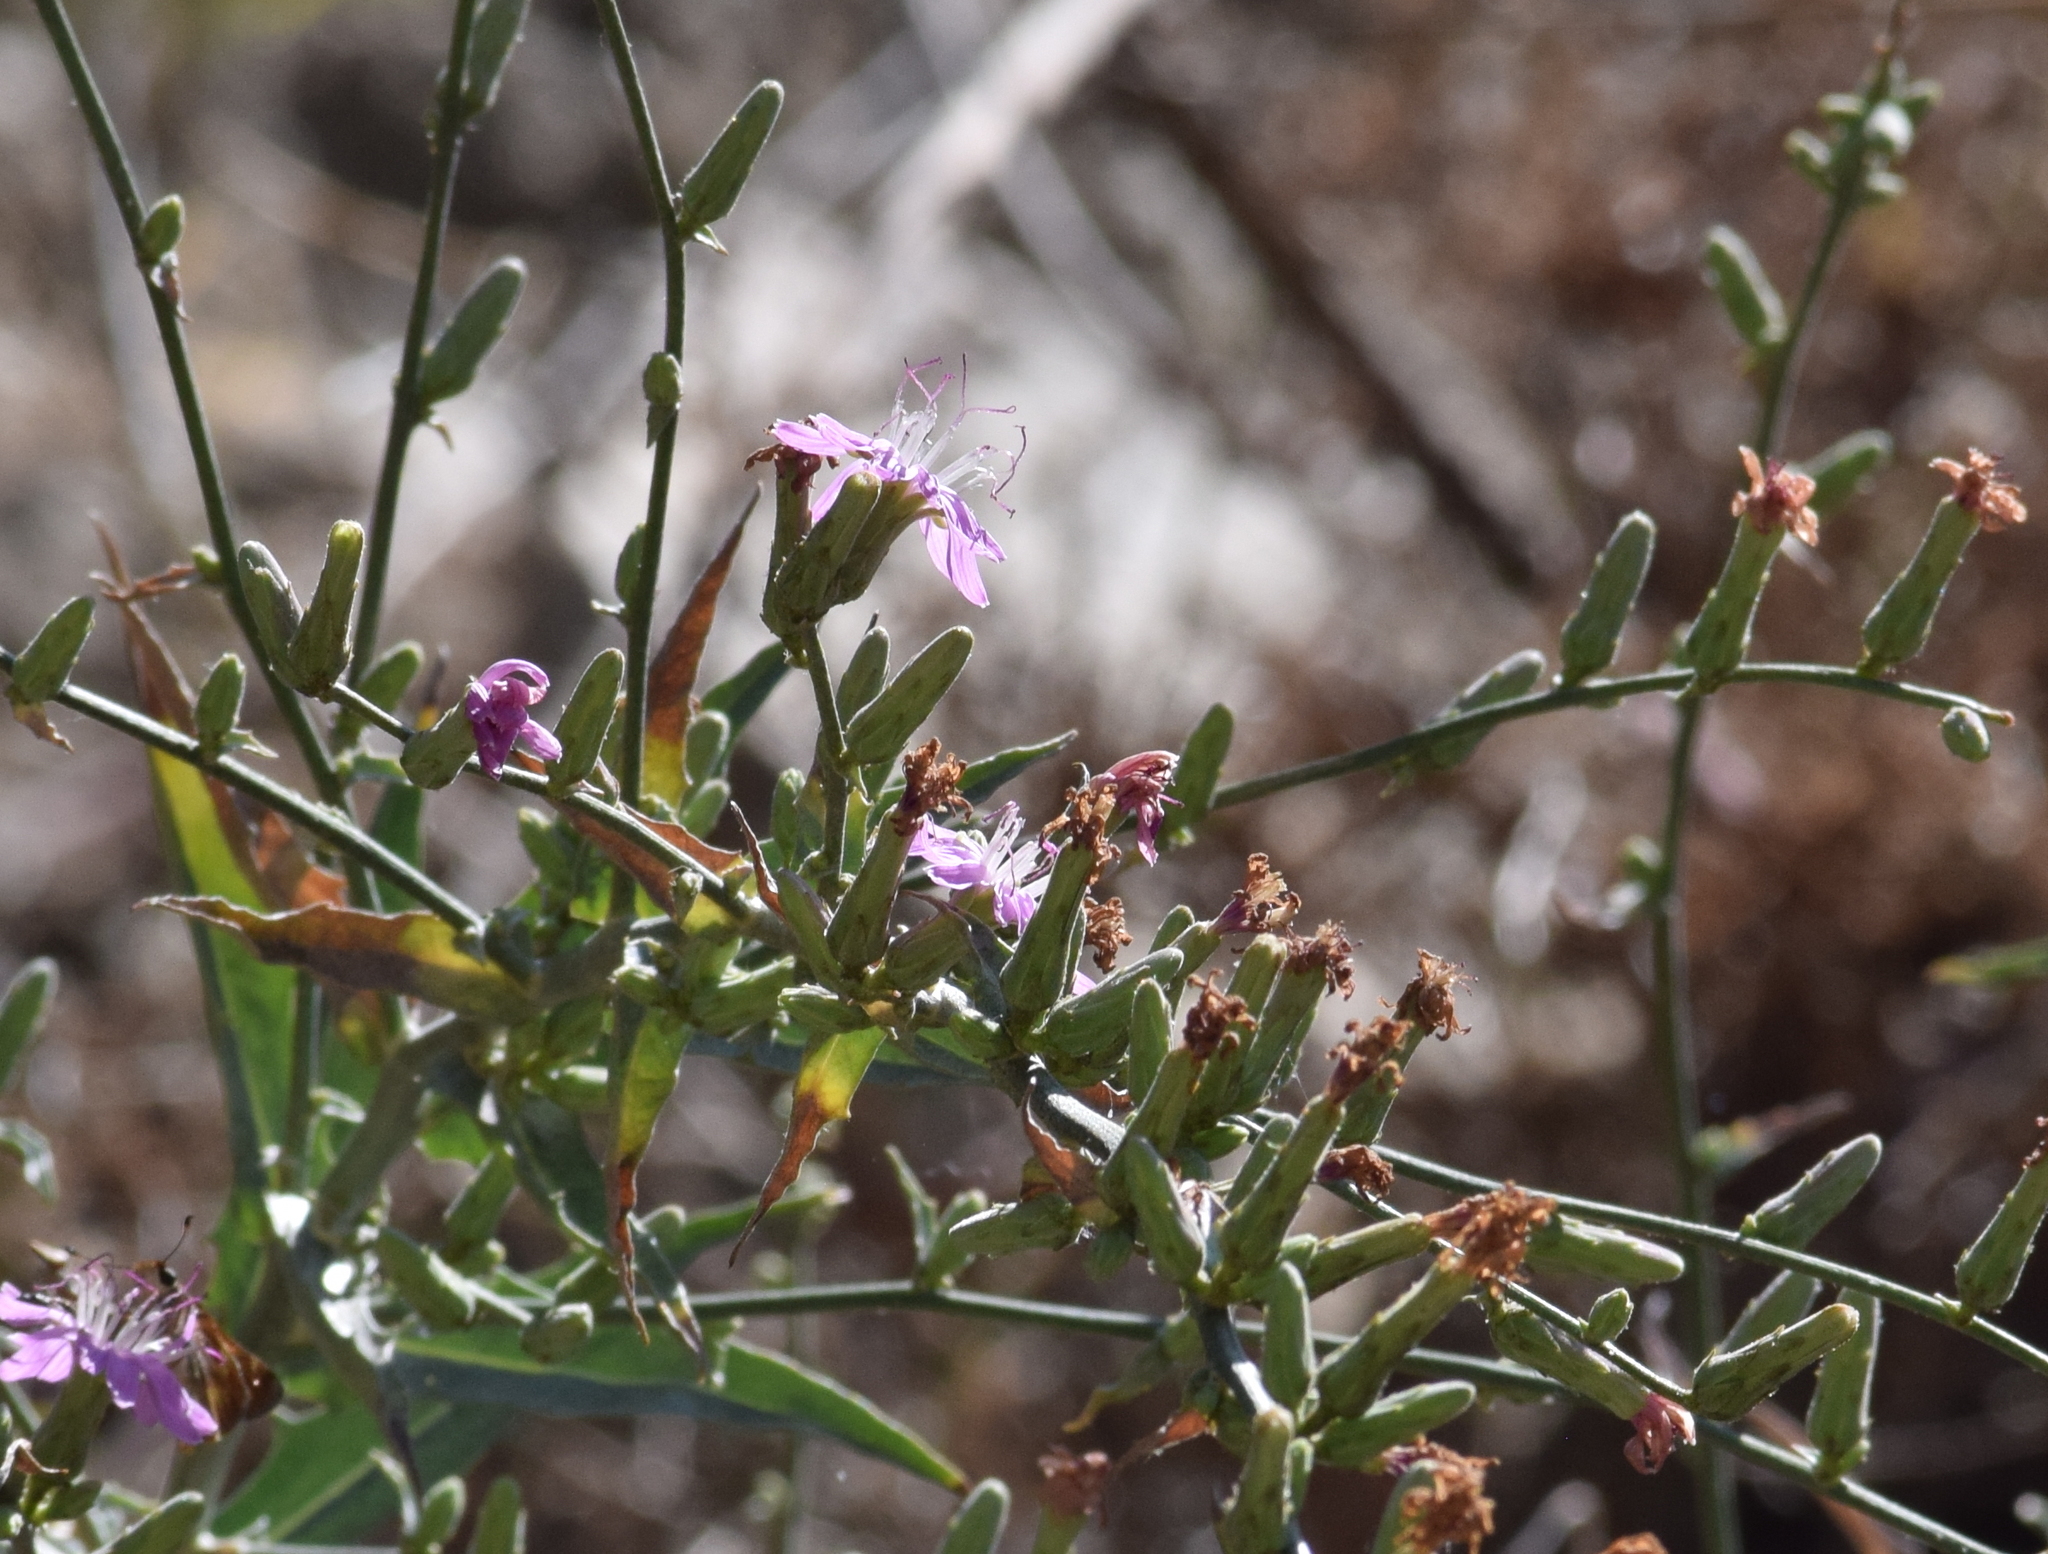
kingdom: Plantae
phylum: Tracheophyta
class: Magnoliopsida
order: Asterales
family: Asteraceae
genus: Stephanomeria
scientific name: Stephanomeria cichoriacea
